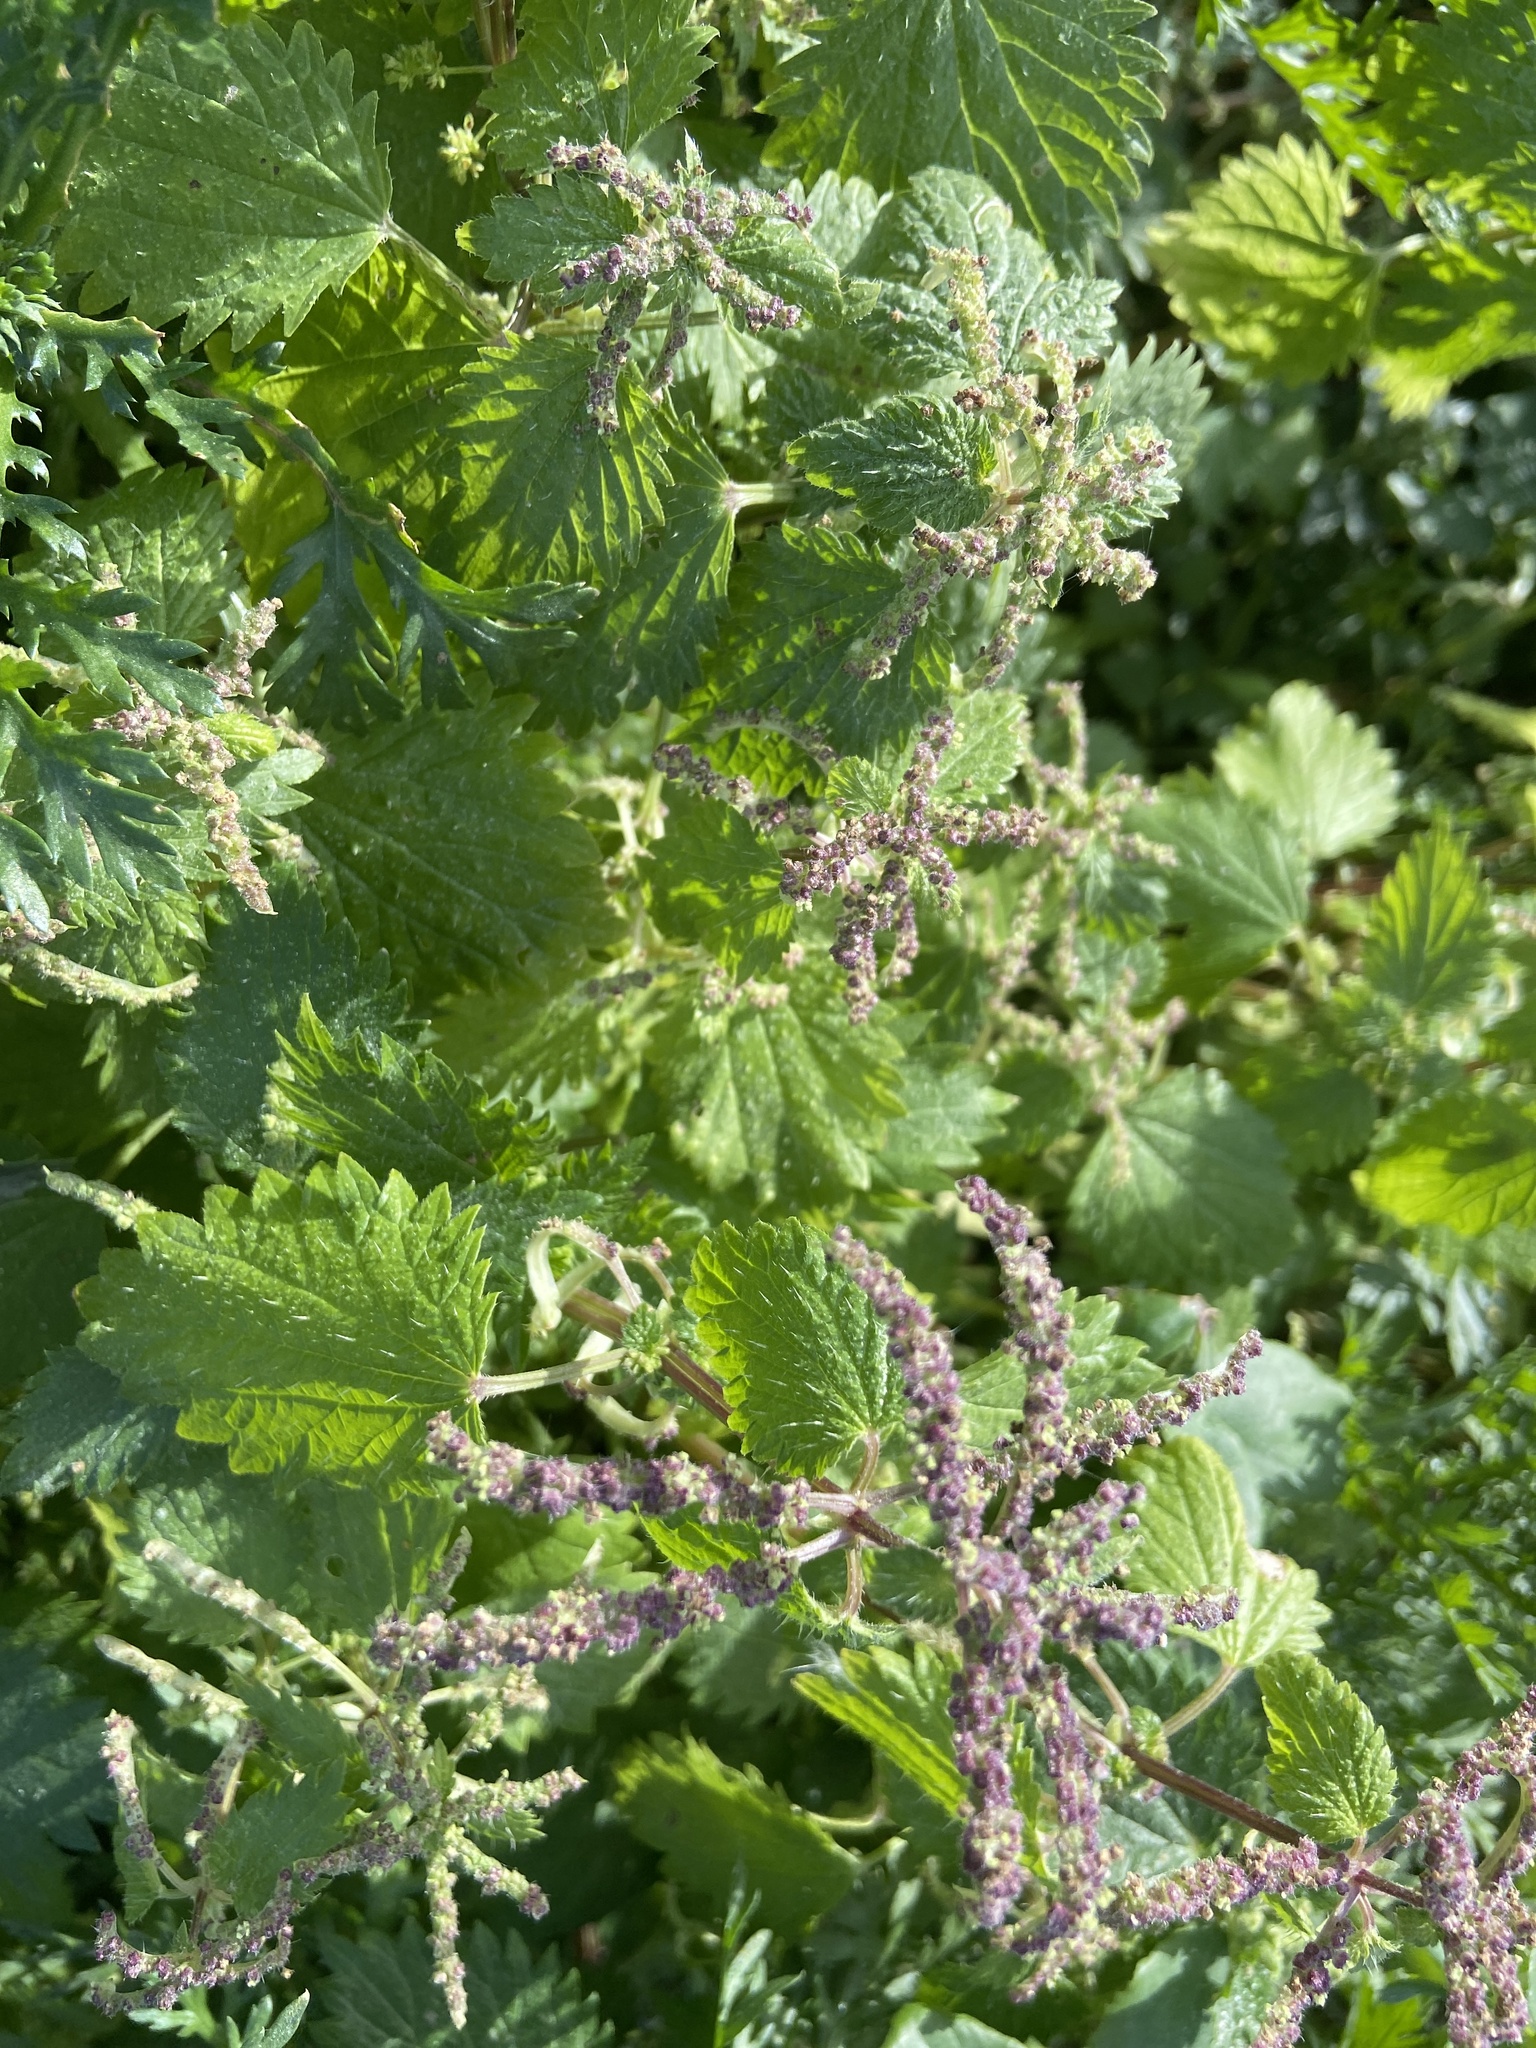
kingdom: Plantae
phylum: Tracheophyta
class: Magnoliopsida
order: Rosales
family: Urticaceae
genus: Urtica
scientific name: Urtica membranacea
